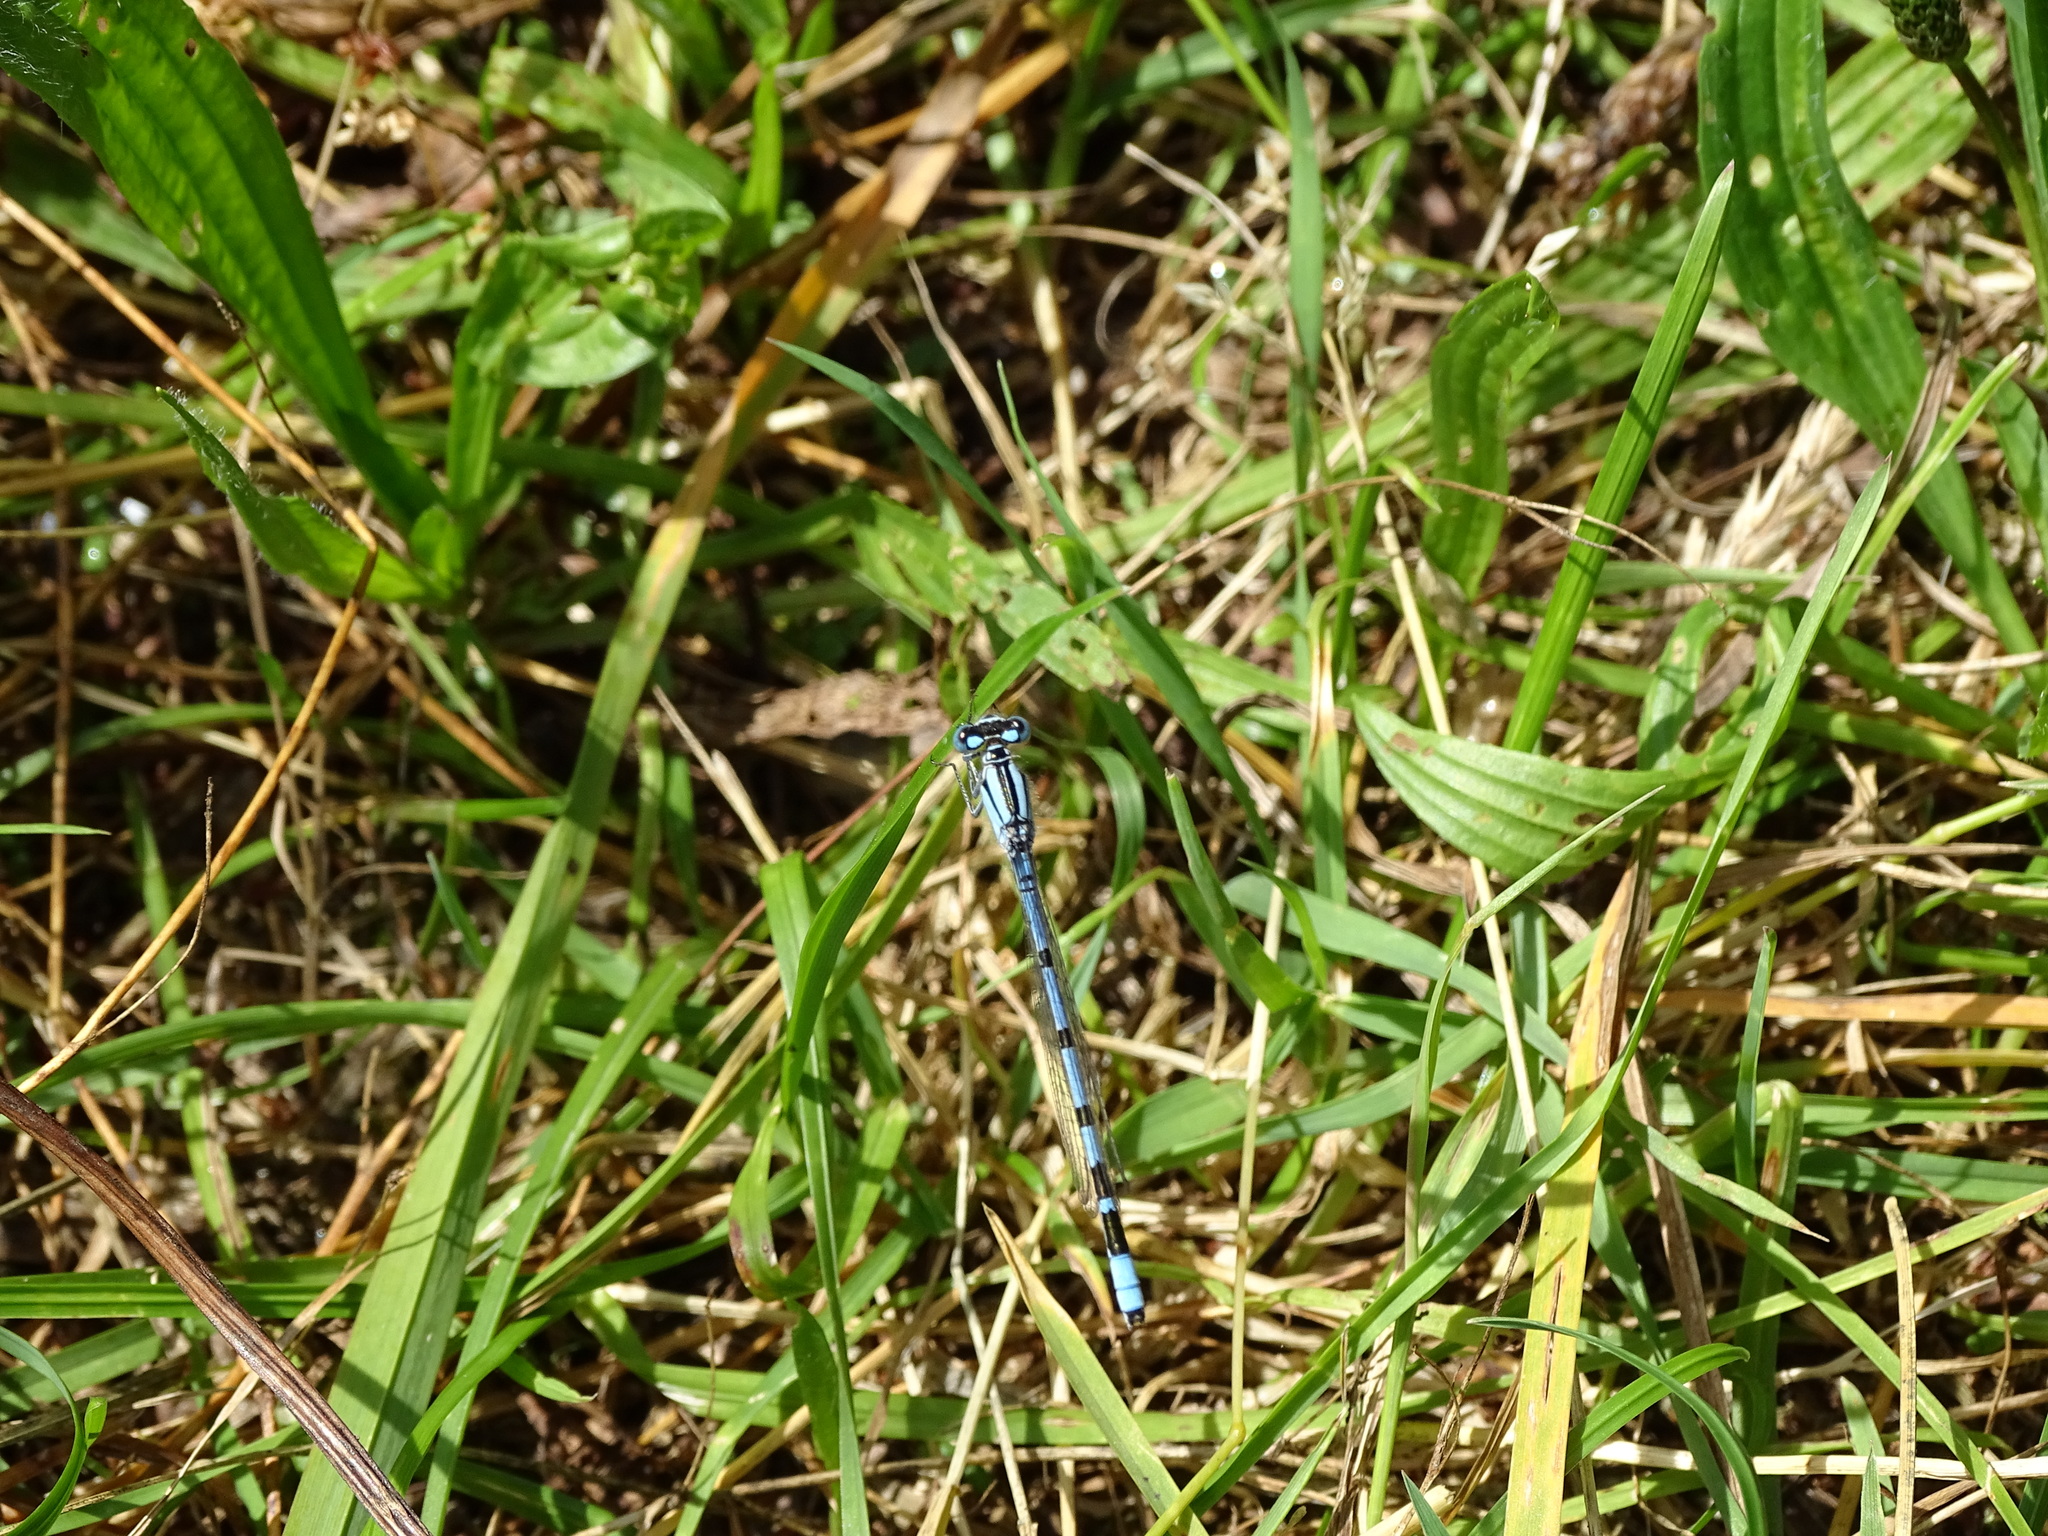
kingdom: Animalia
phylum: Arthropoda
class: Insecta
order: Odonata
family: Coenagrionidae
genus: Enallagma
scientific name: Enallagma cyathigerum
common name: Common blue damselfly
